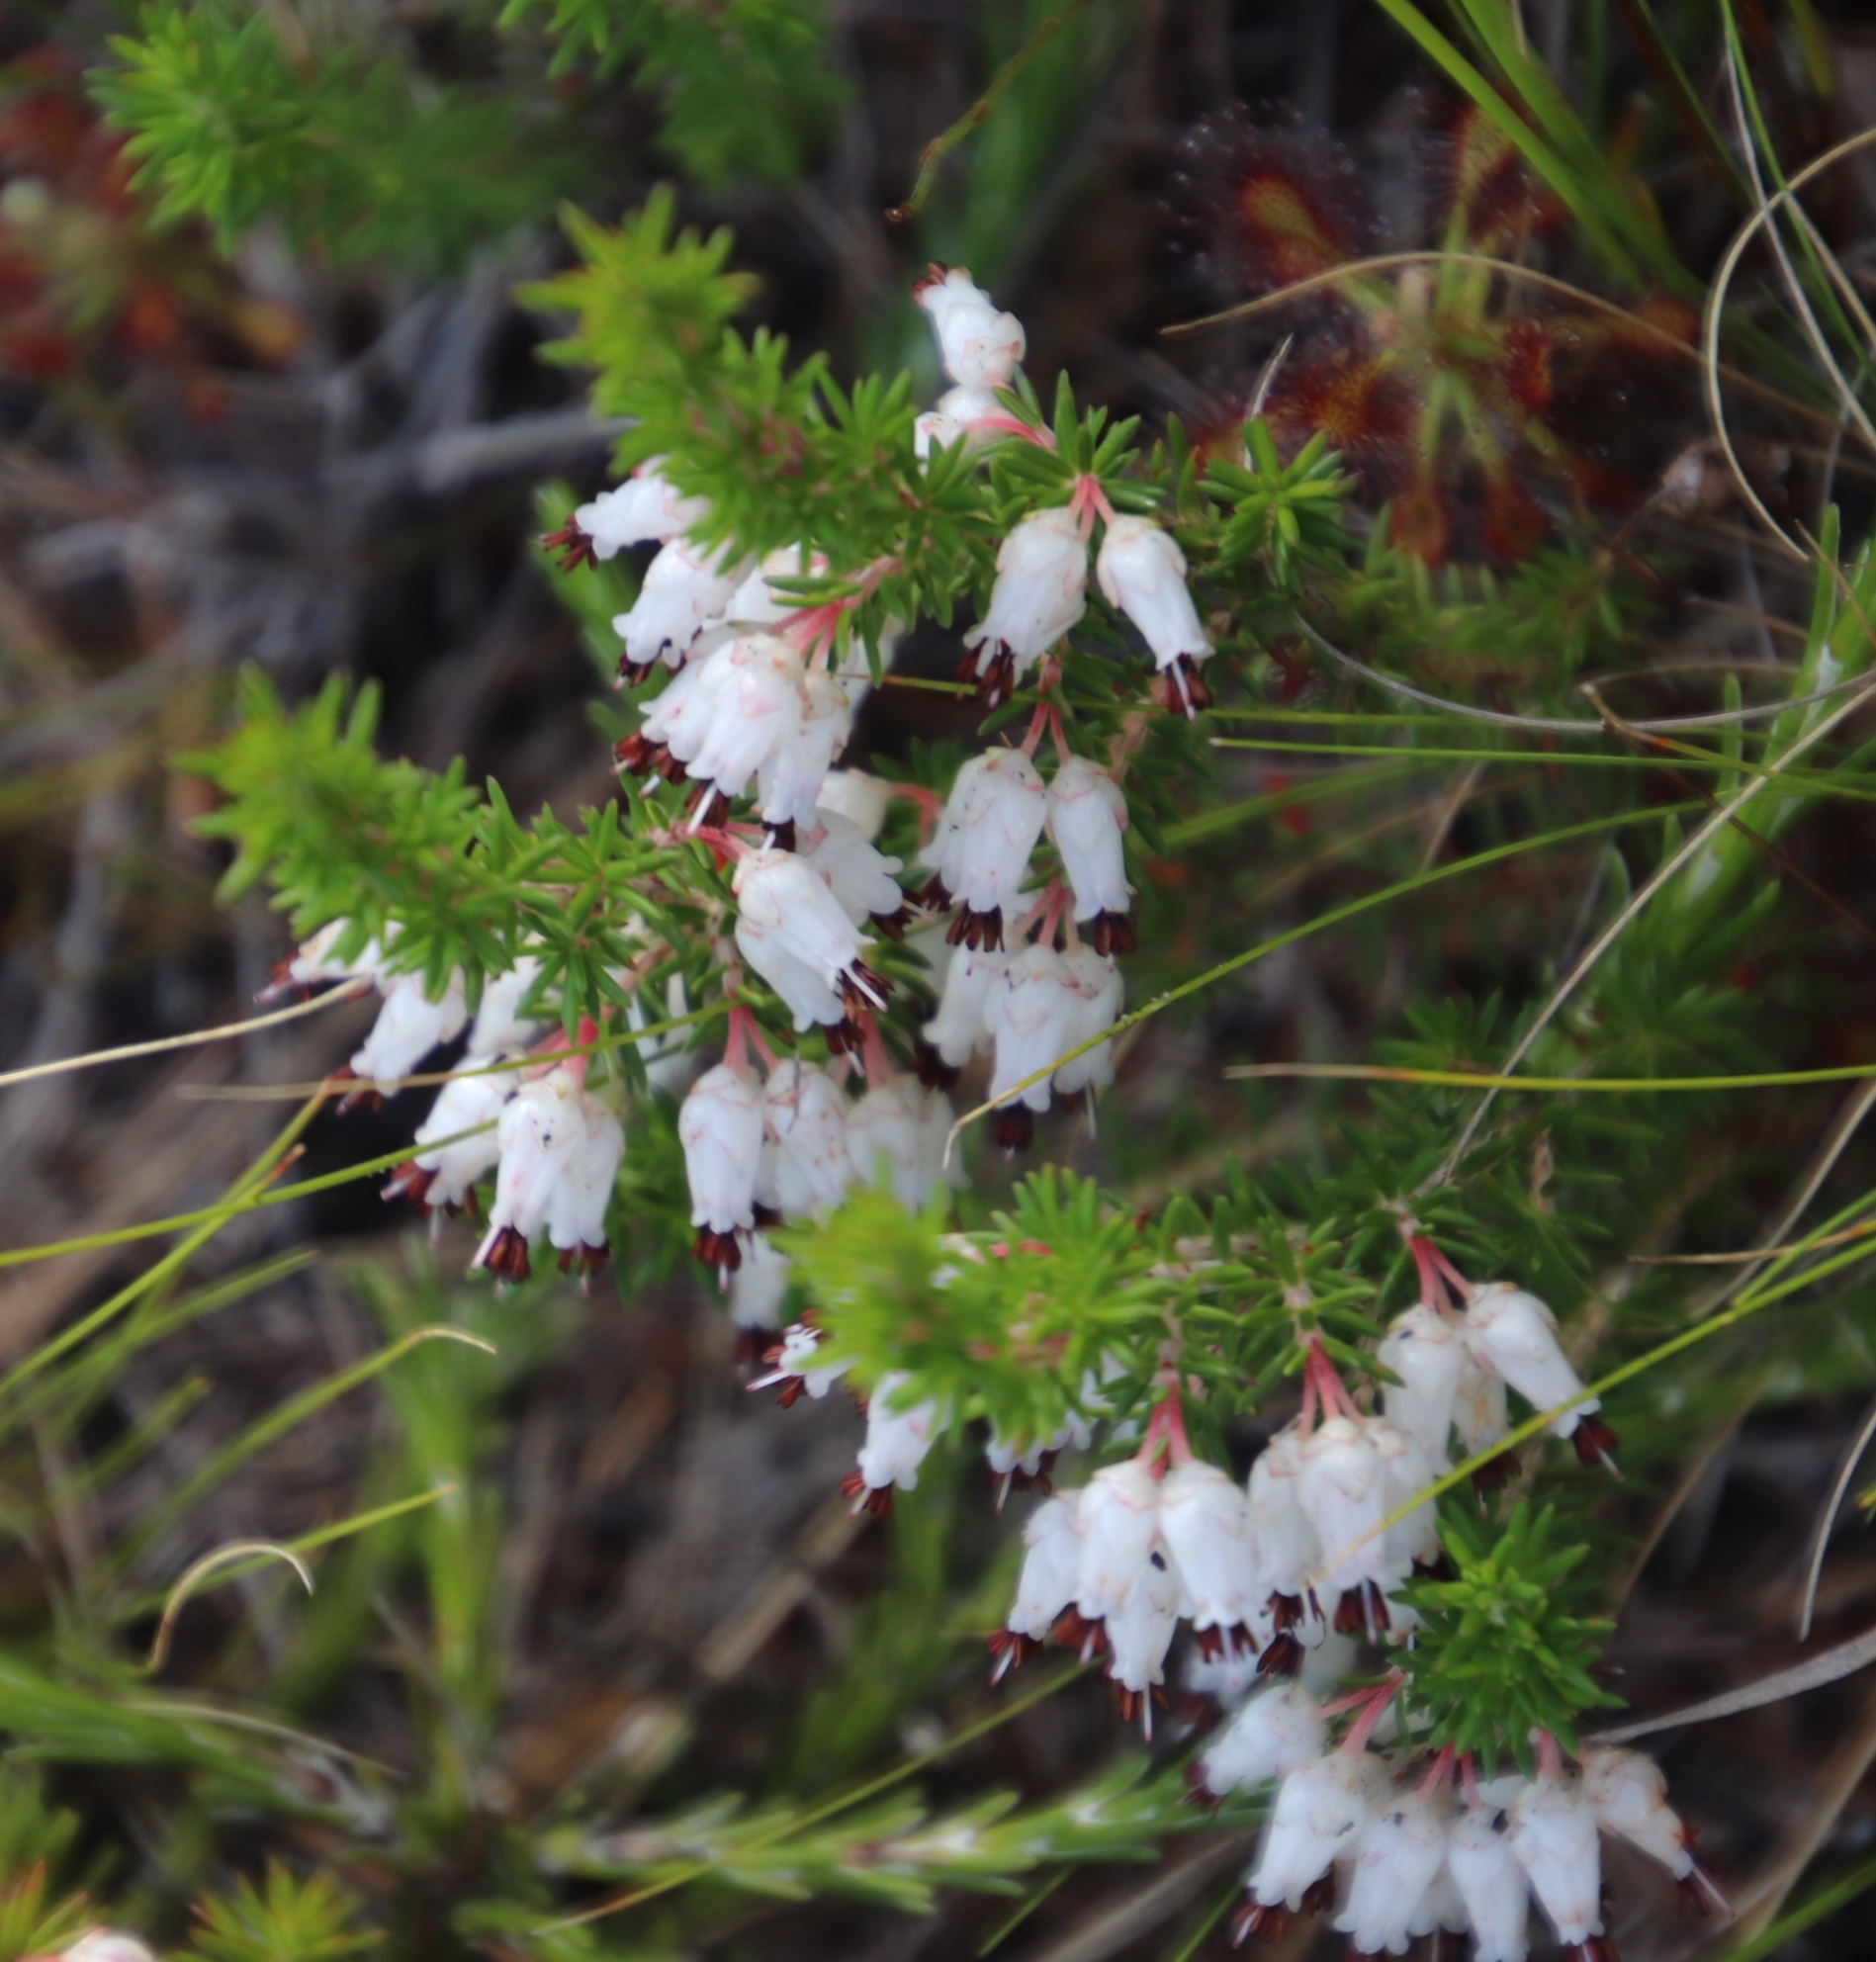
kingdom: Plantae
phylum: Tracheophyta
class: Magnoliopsida
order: Ericales
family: Ericaceae
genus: Erica
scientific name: Erica desmantha
